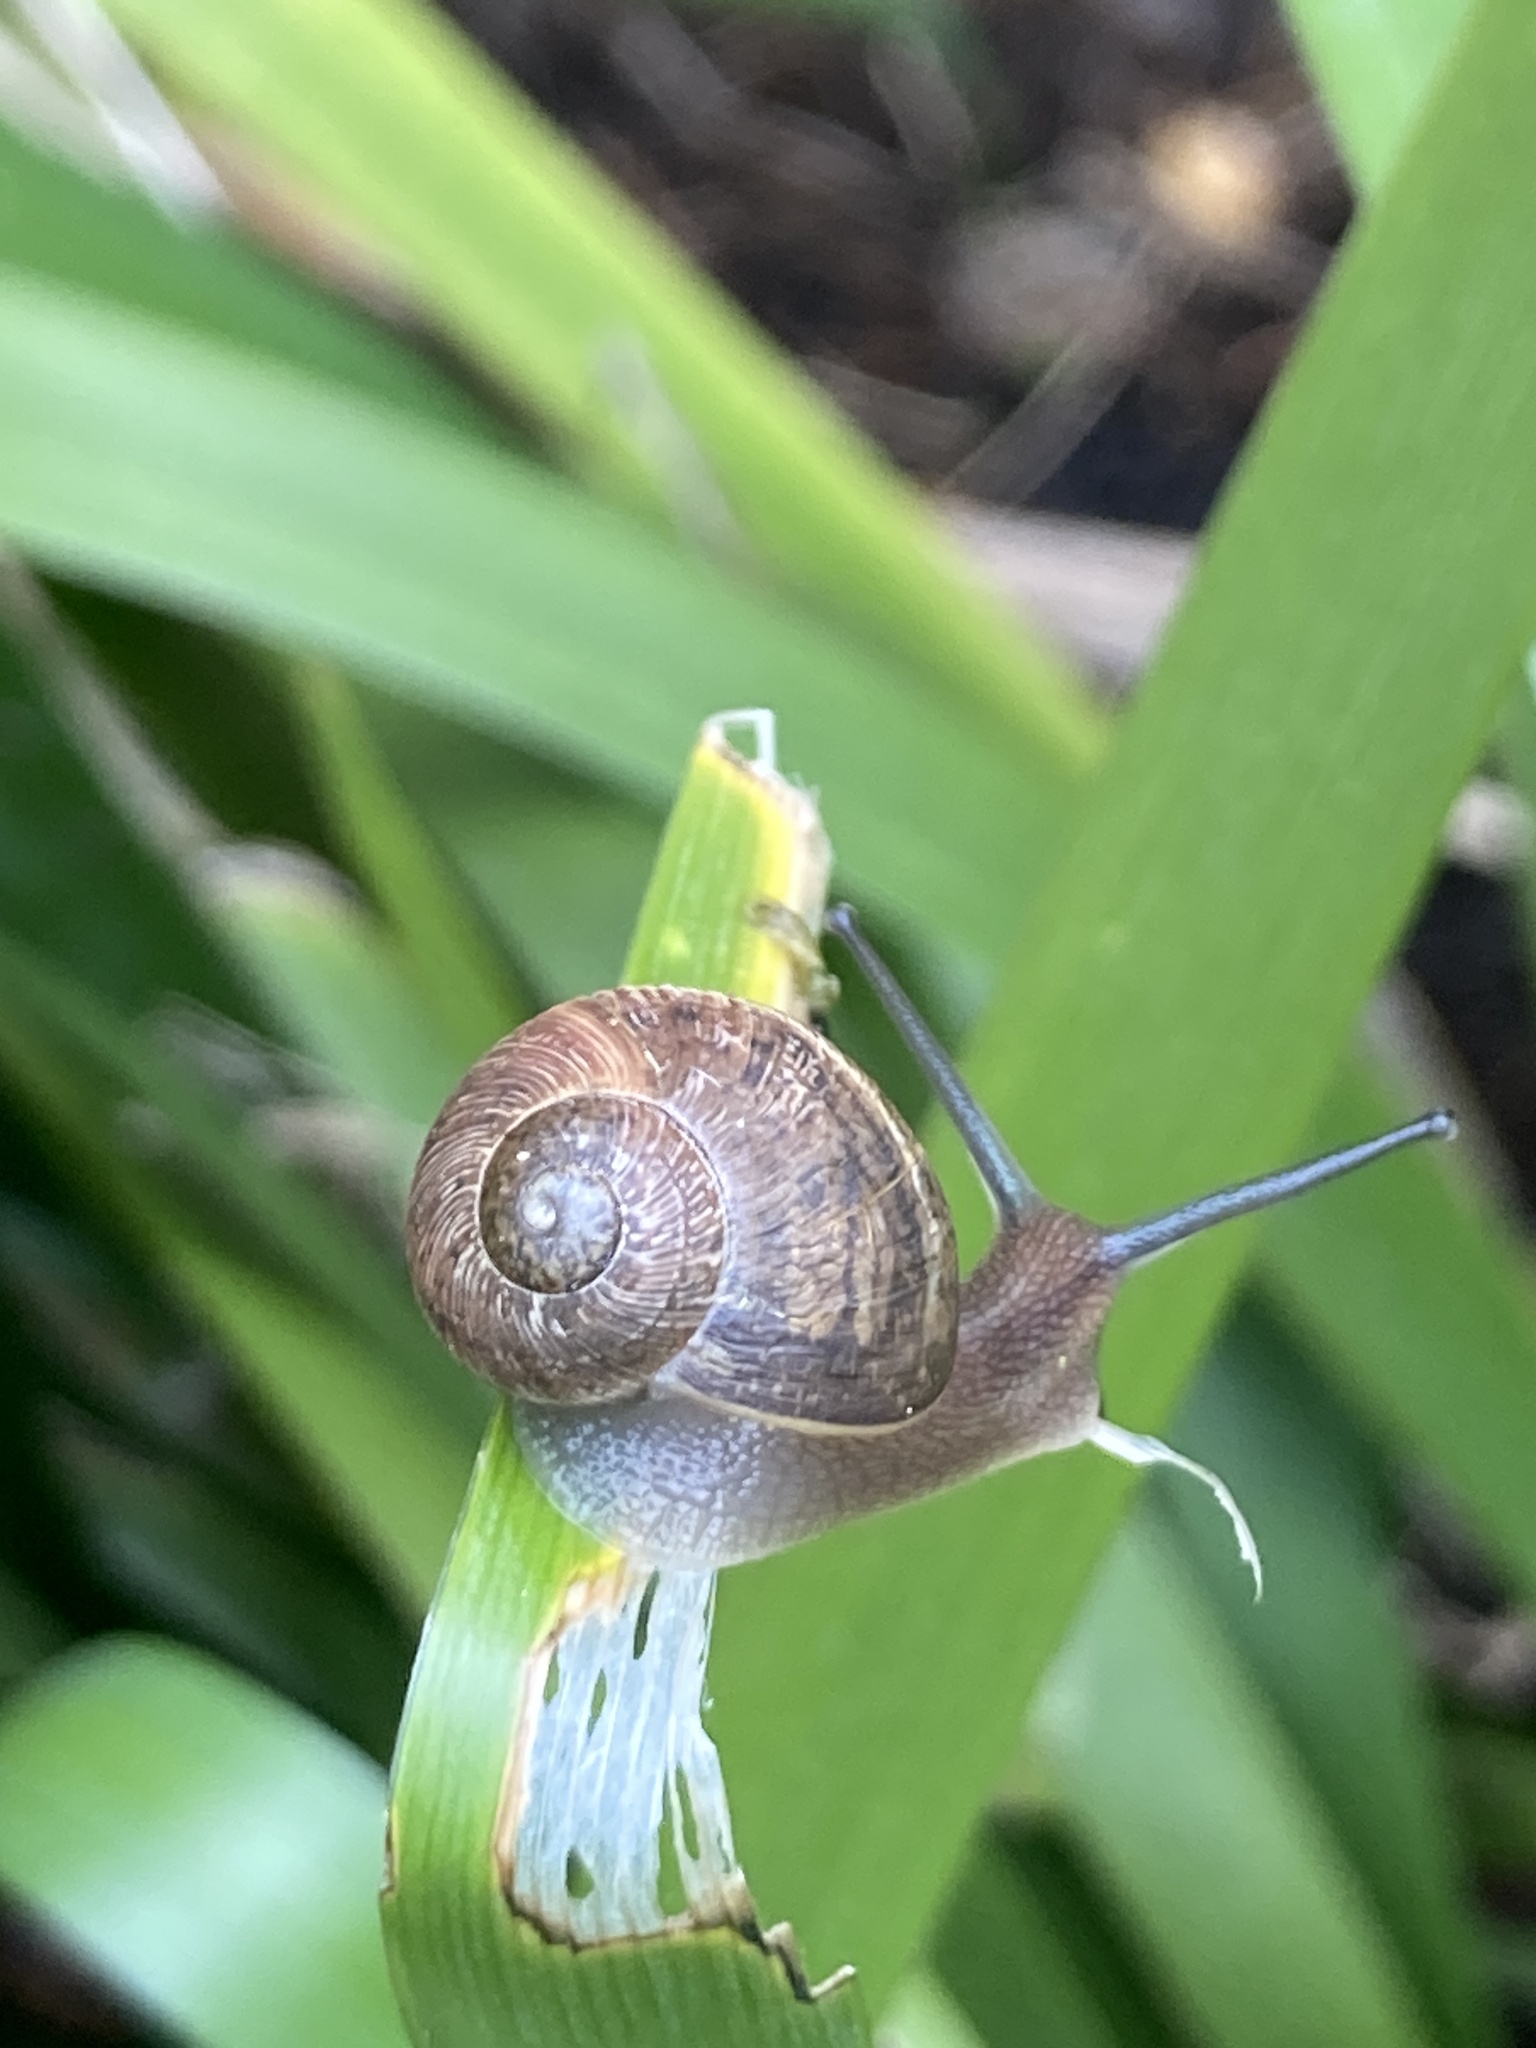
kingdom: Animalia
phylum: Mollusca
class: Gastropoda
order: Stylommatophora
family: Helicidae
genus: Cornu
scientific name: Cornu aspersum
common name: Brown garden snail
